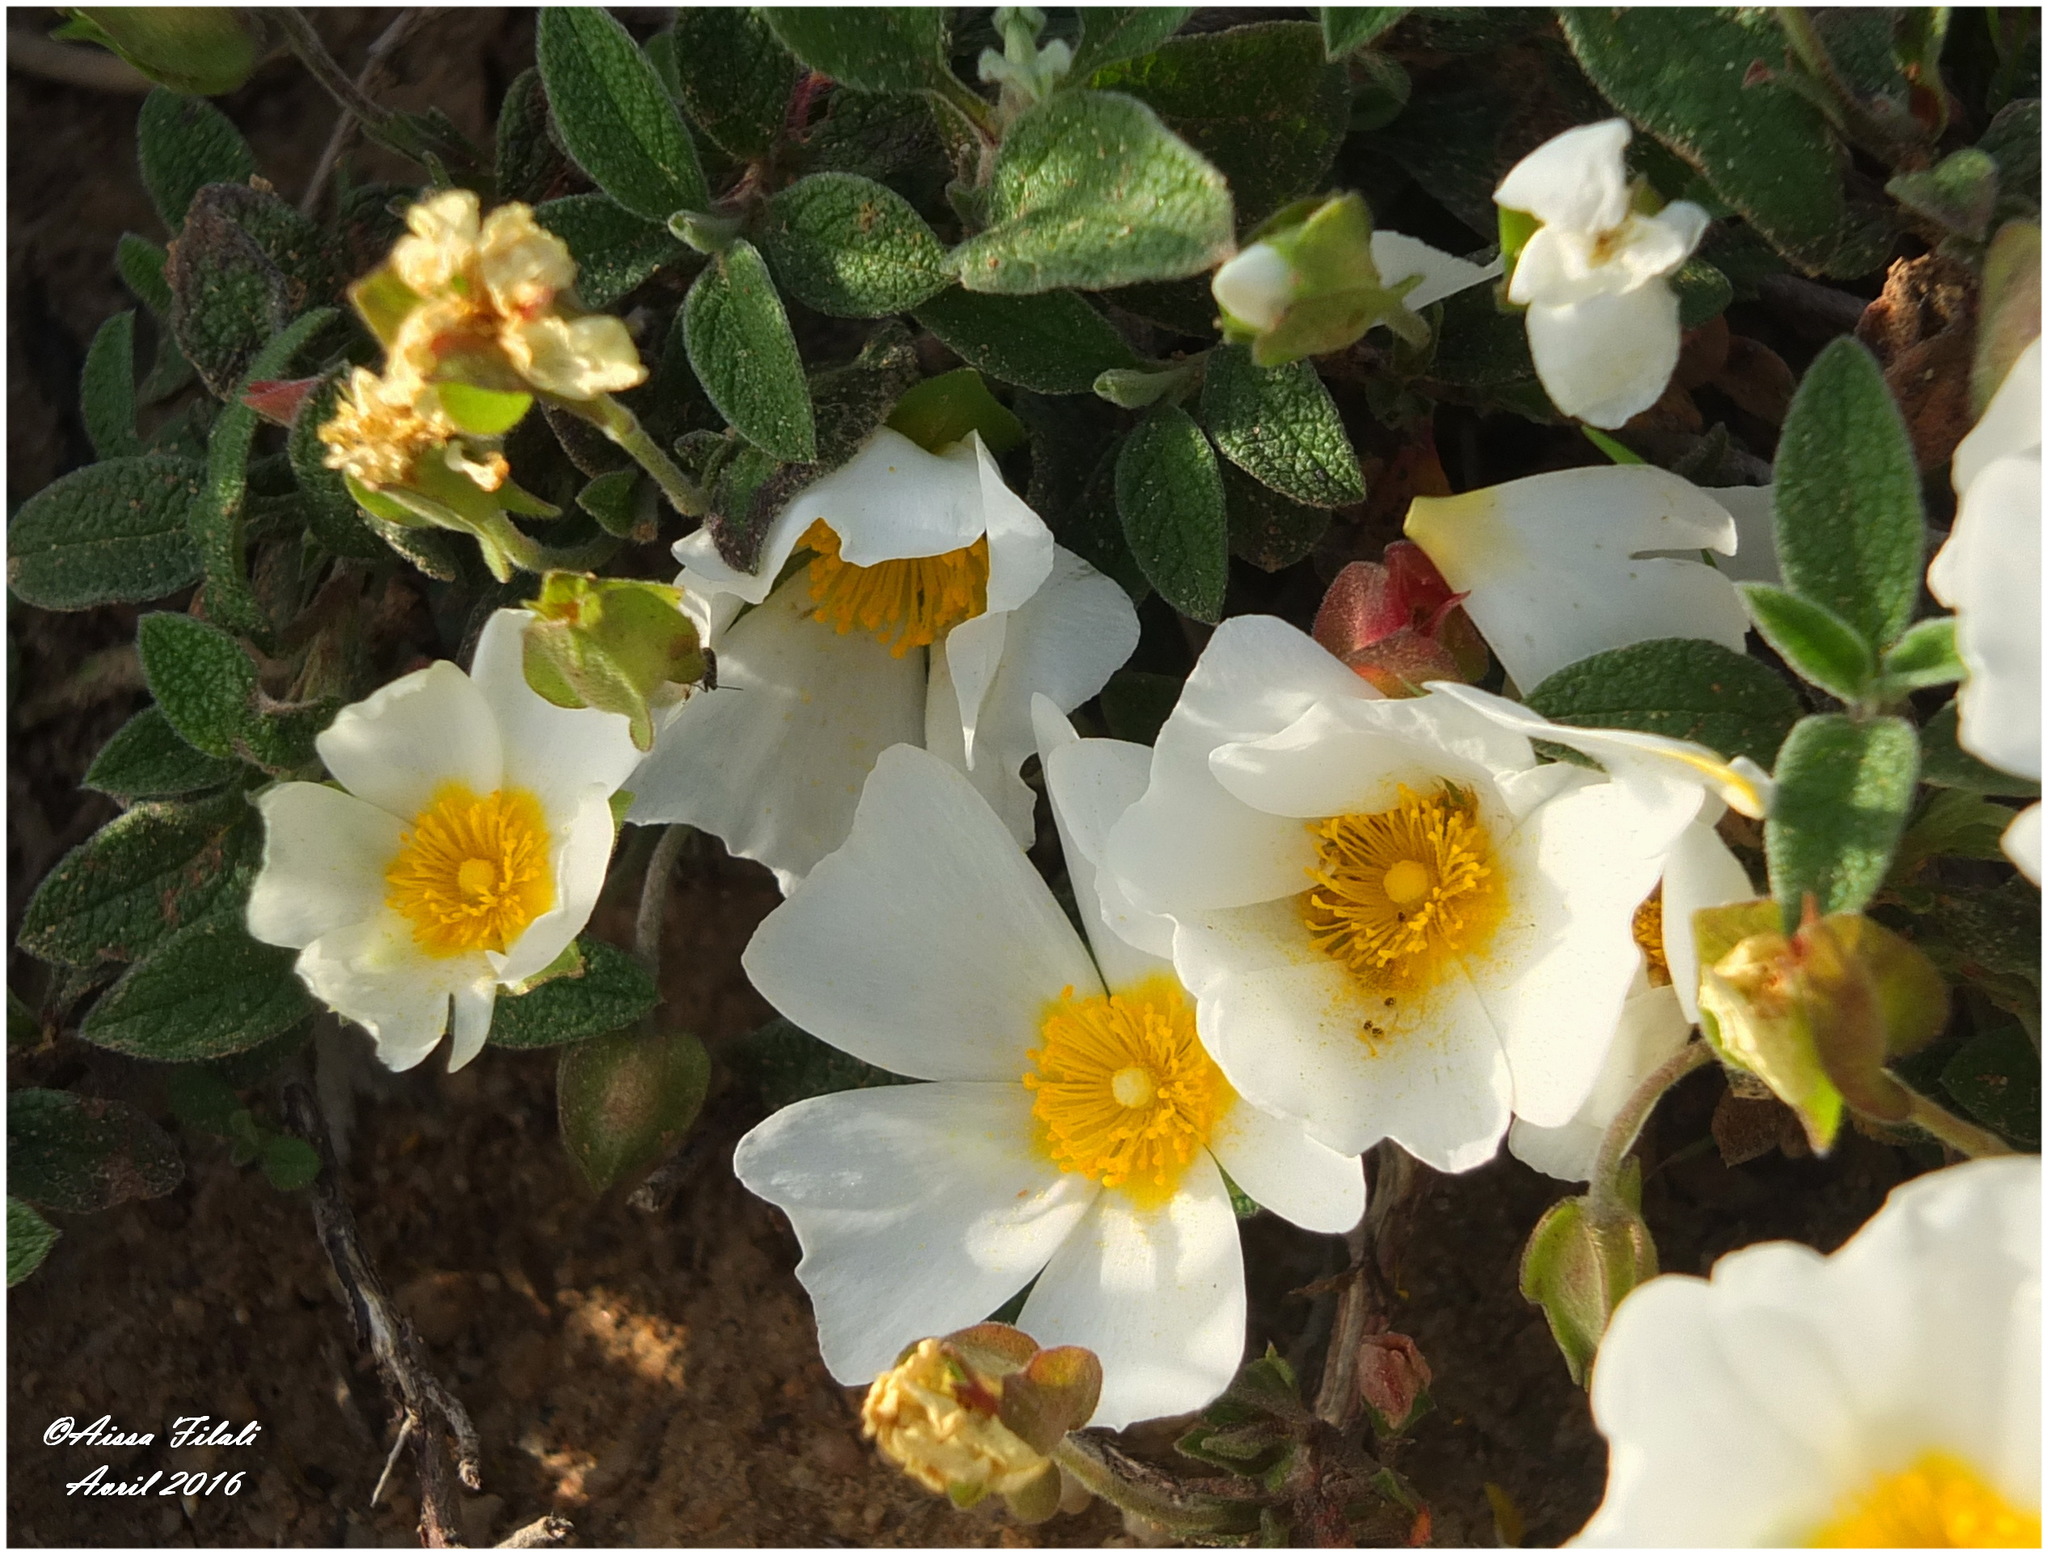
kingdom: Plantae
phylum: Tracheophyta
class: Magnoliopsida
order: Malvales
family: Cistaceae
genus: Cistus
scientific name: Cistus salviifolius
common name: Salvia cistus
